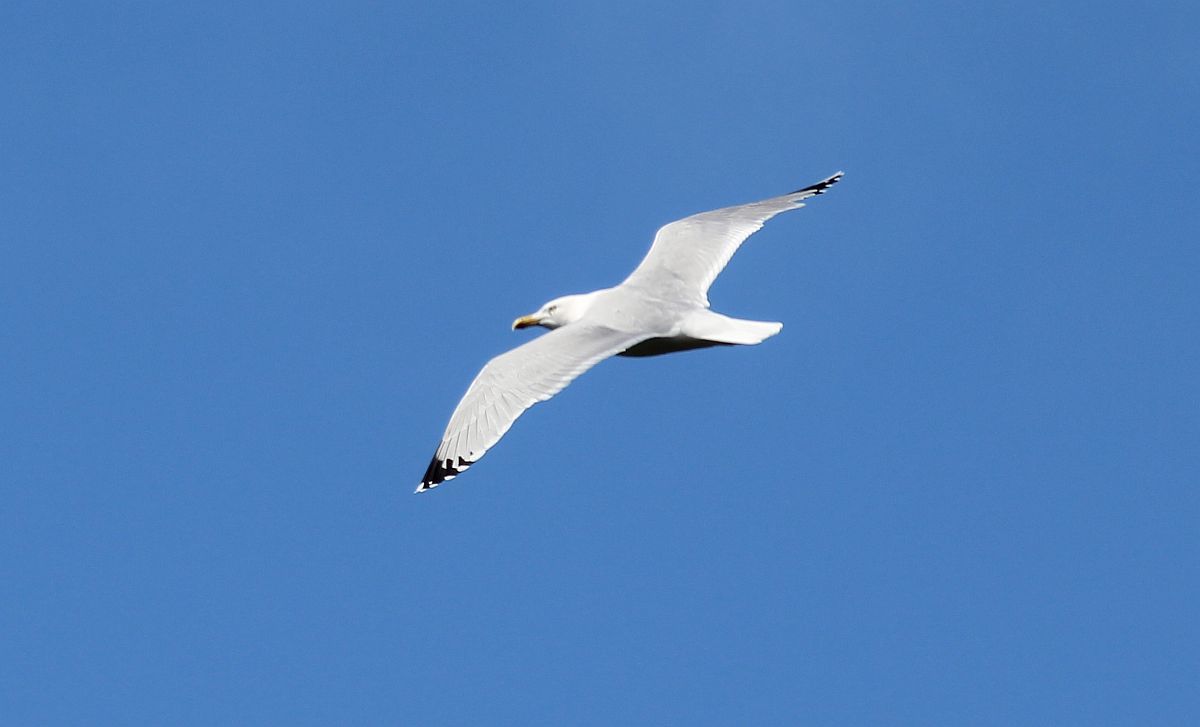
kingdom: Animalia
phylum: Chordata
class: Aves
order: Charadriiformes
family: Laridae
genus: Larus
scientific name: Larus argentatus
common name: Herring gull
